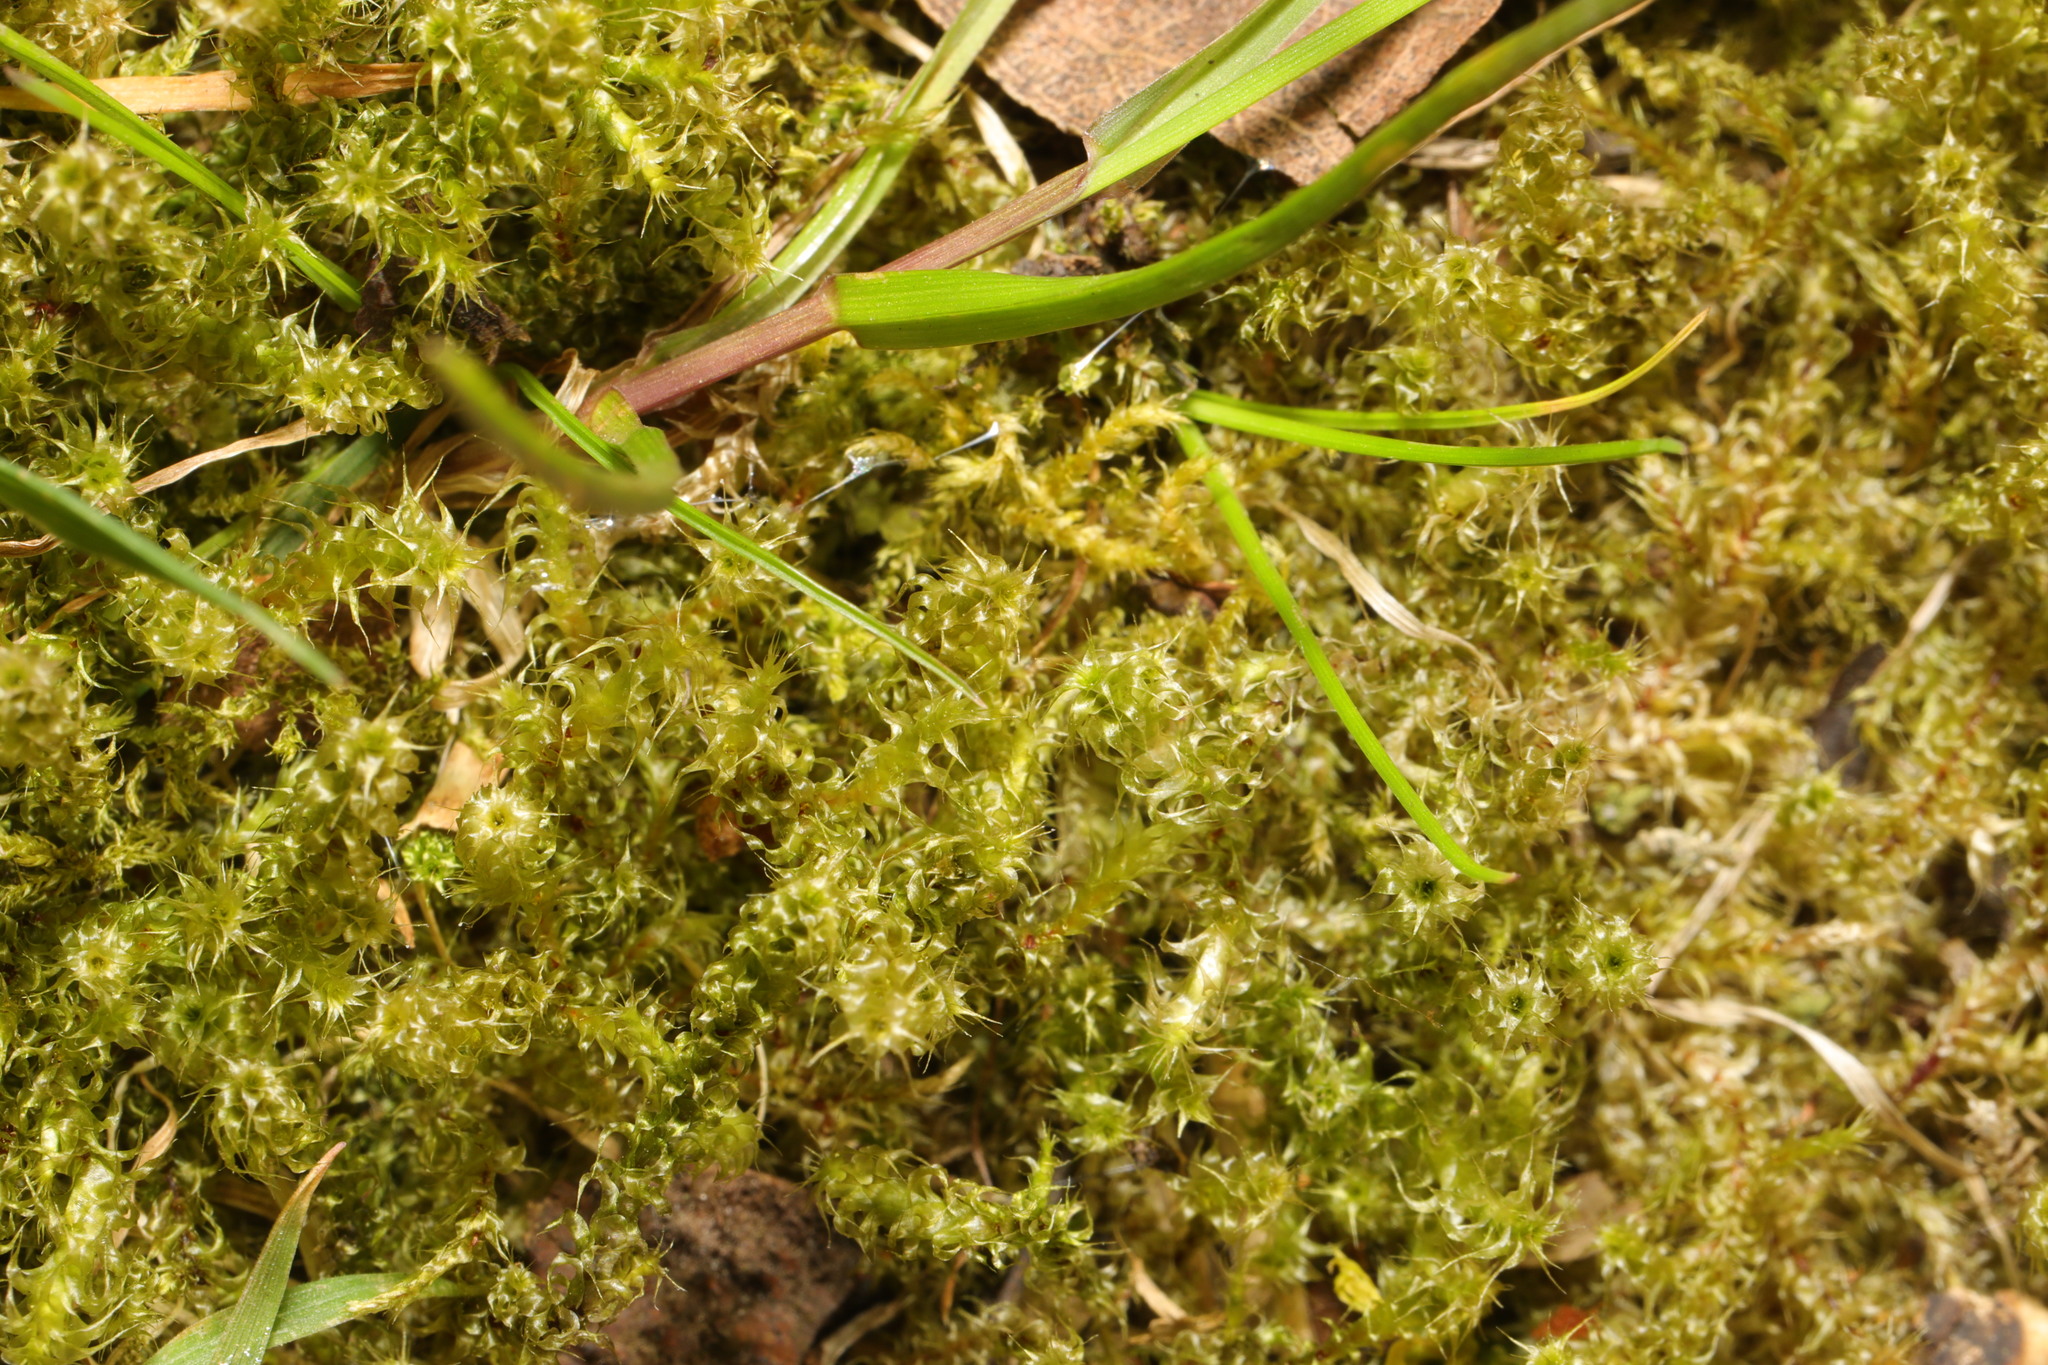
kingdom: Plantae
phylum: Bryophyta
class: Bryopsida
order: Hypnales
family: Hylocomiaceae
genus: Rhytidiadelphus
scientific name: Rhytidiadelphus squarrosus
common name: Springy turf-moss
